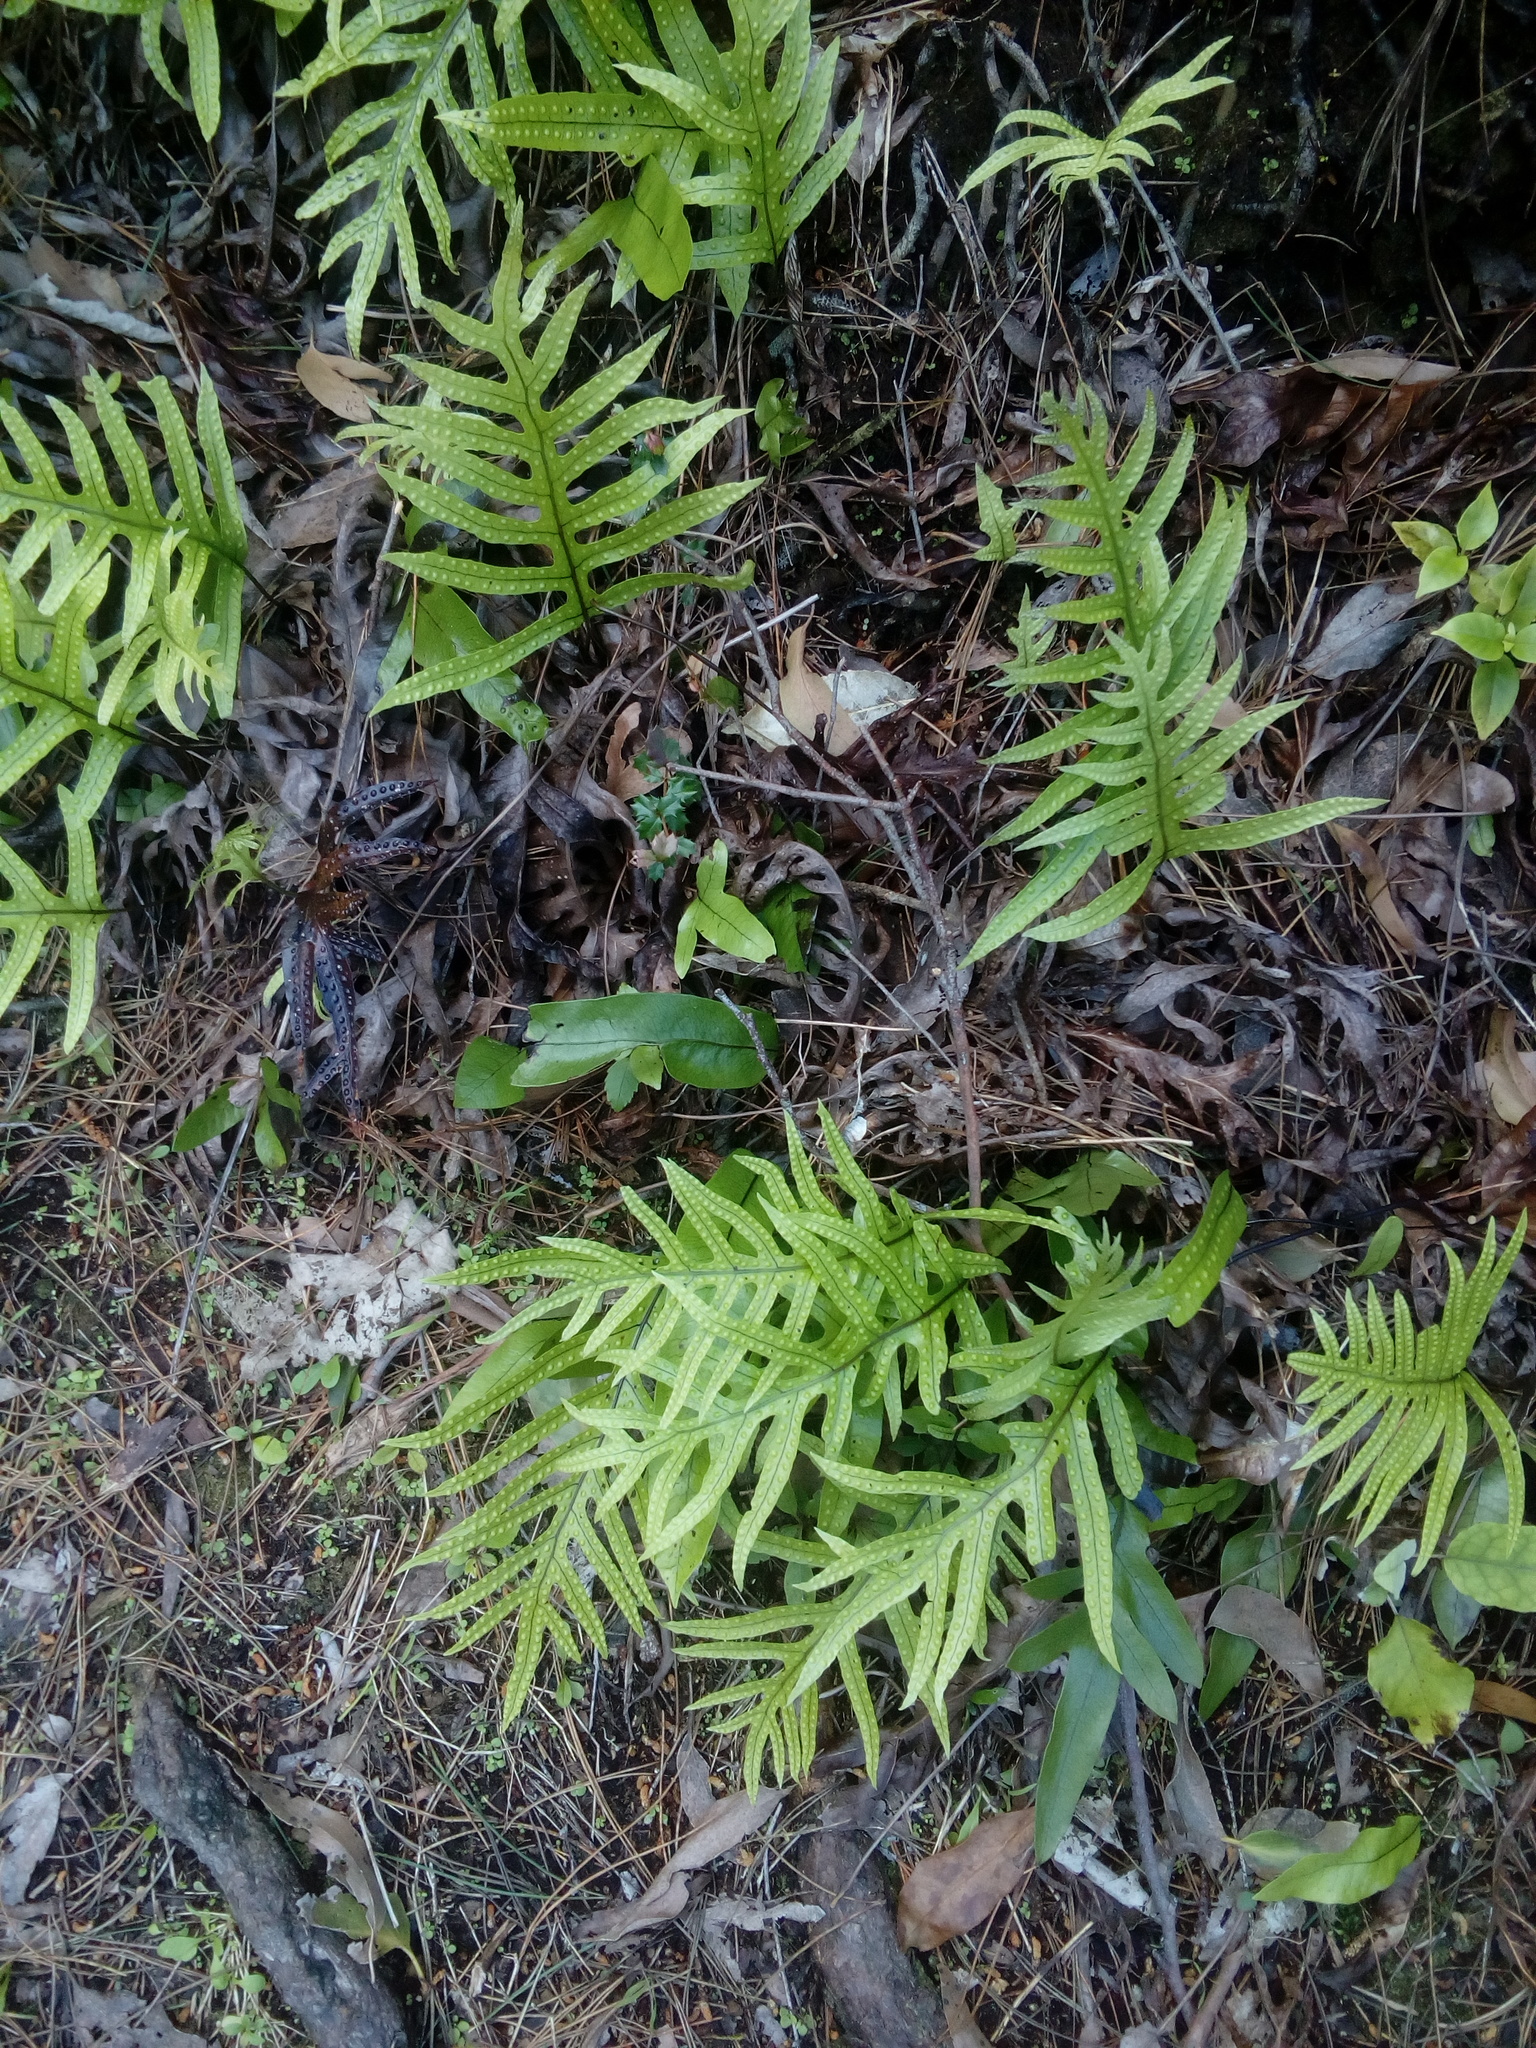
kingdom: Plantae
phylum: Tracheophyta
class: Polypodiopsida
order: Polypodiales
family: Polypodiaceae
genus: Lecanopteris
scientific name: Lecanopteris pustulata
